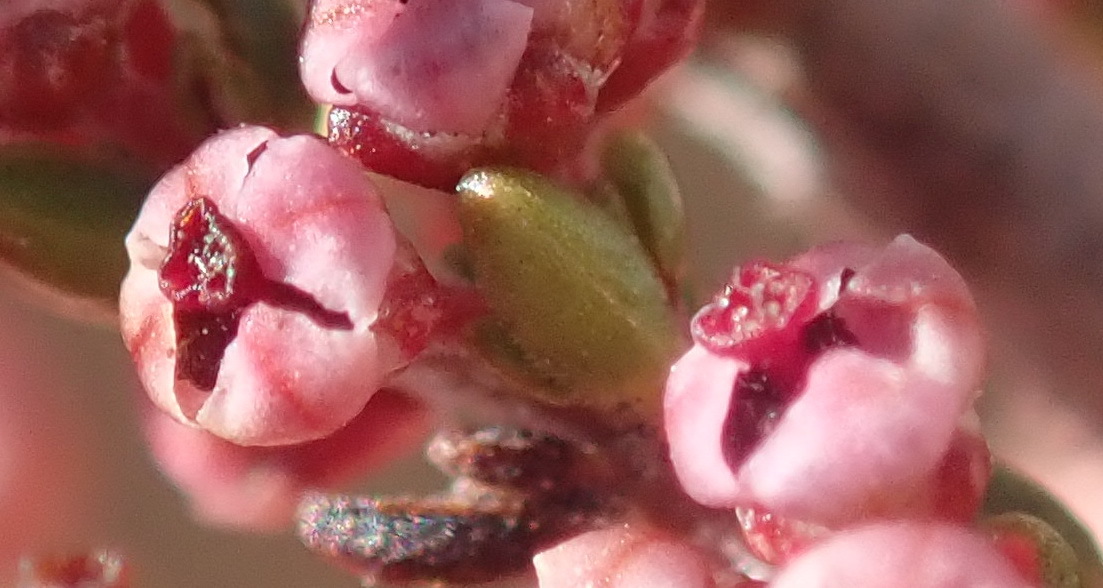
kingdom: Plantae
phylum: Tracheophyta
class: Magnoliopsida
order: Ericales
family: Ericaceae
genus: Erica
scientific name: Erica peltata
